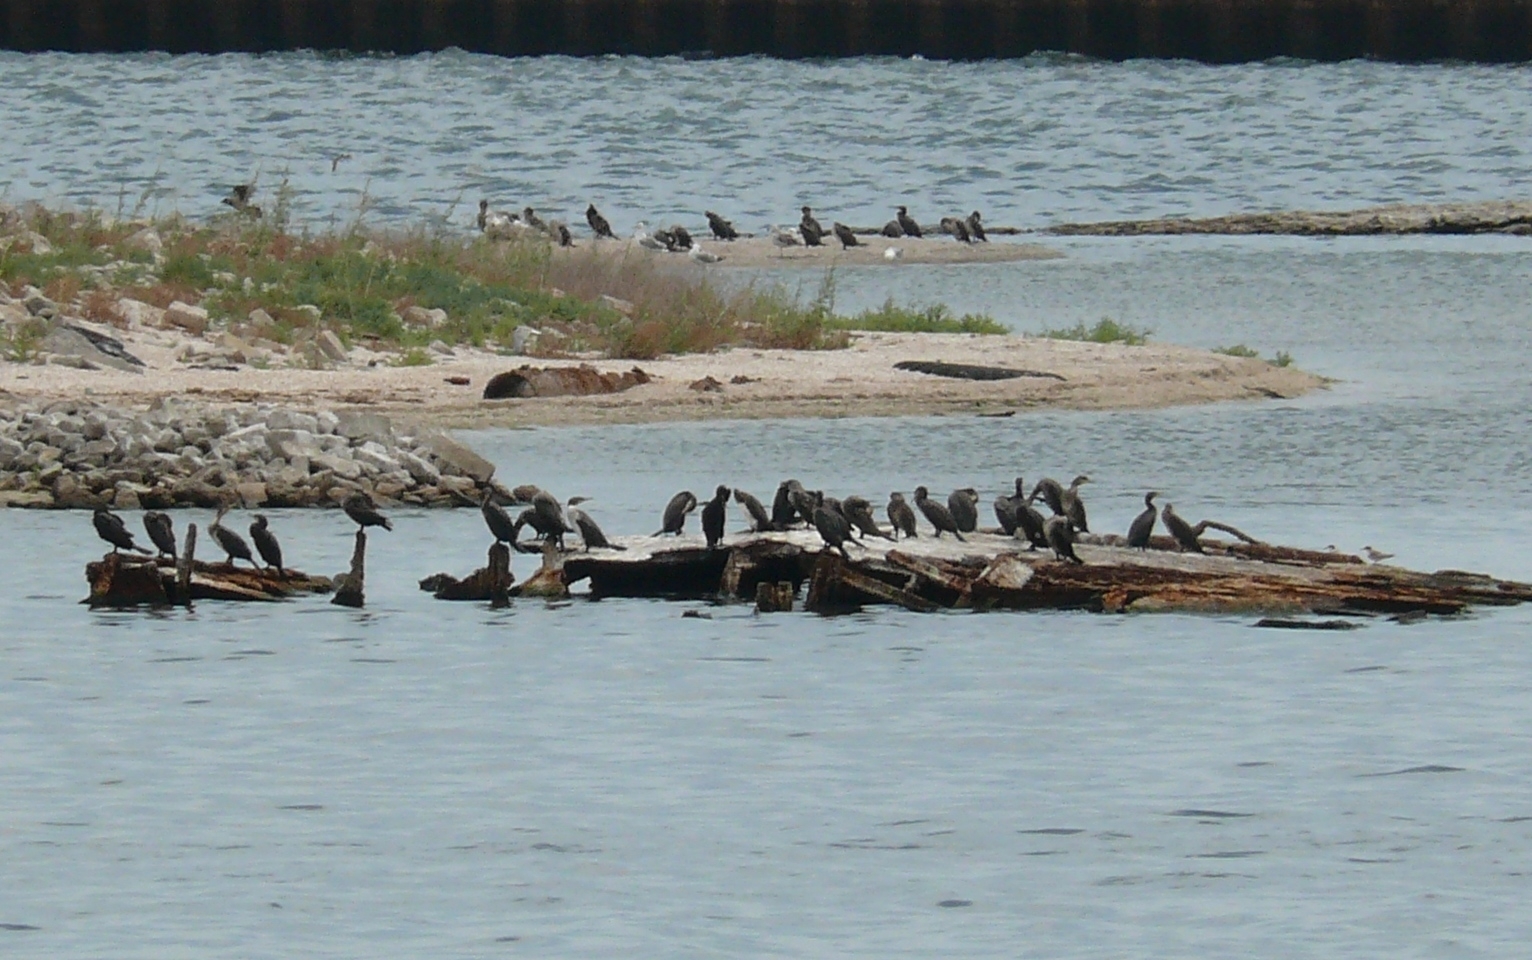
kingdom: Animalia
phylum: Chordata
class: Aves
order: Suliformes
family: Phalacrocoracidae
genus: Phalacrocorax
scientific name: Phalacrocorax carbo
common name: Great cormorant
